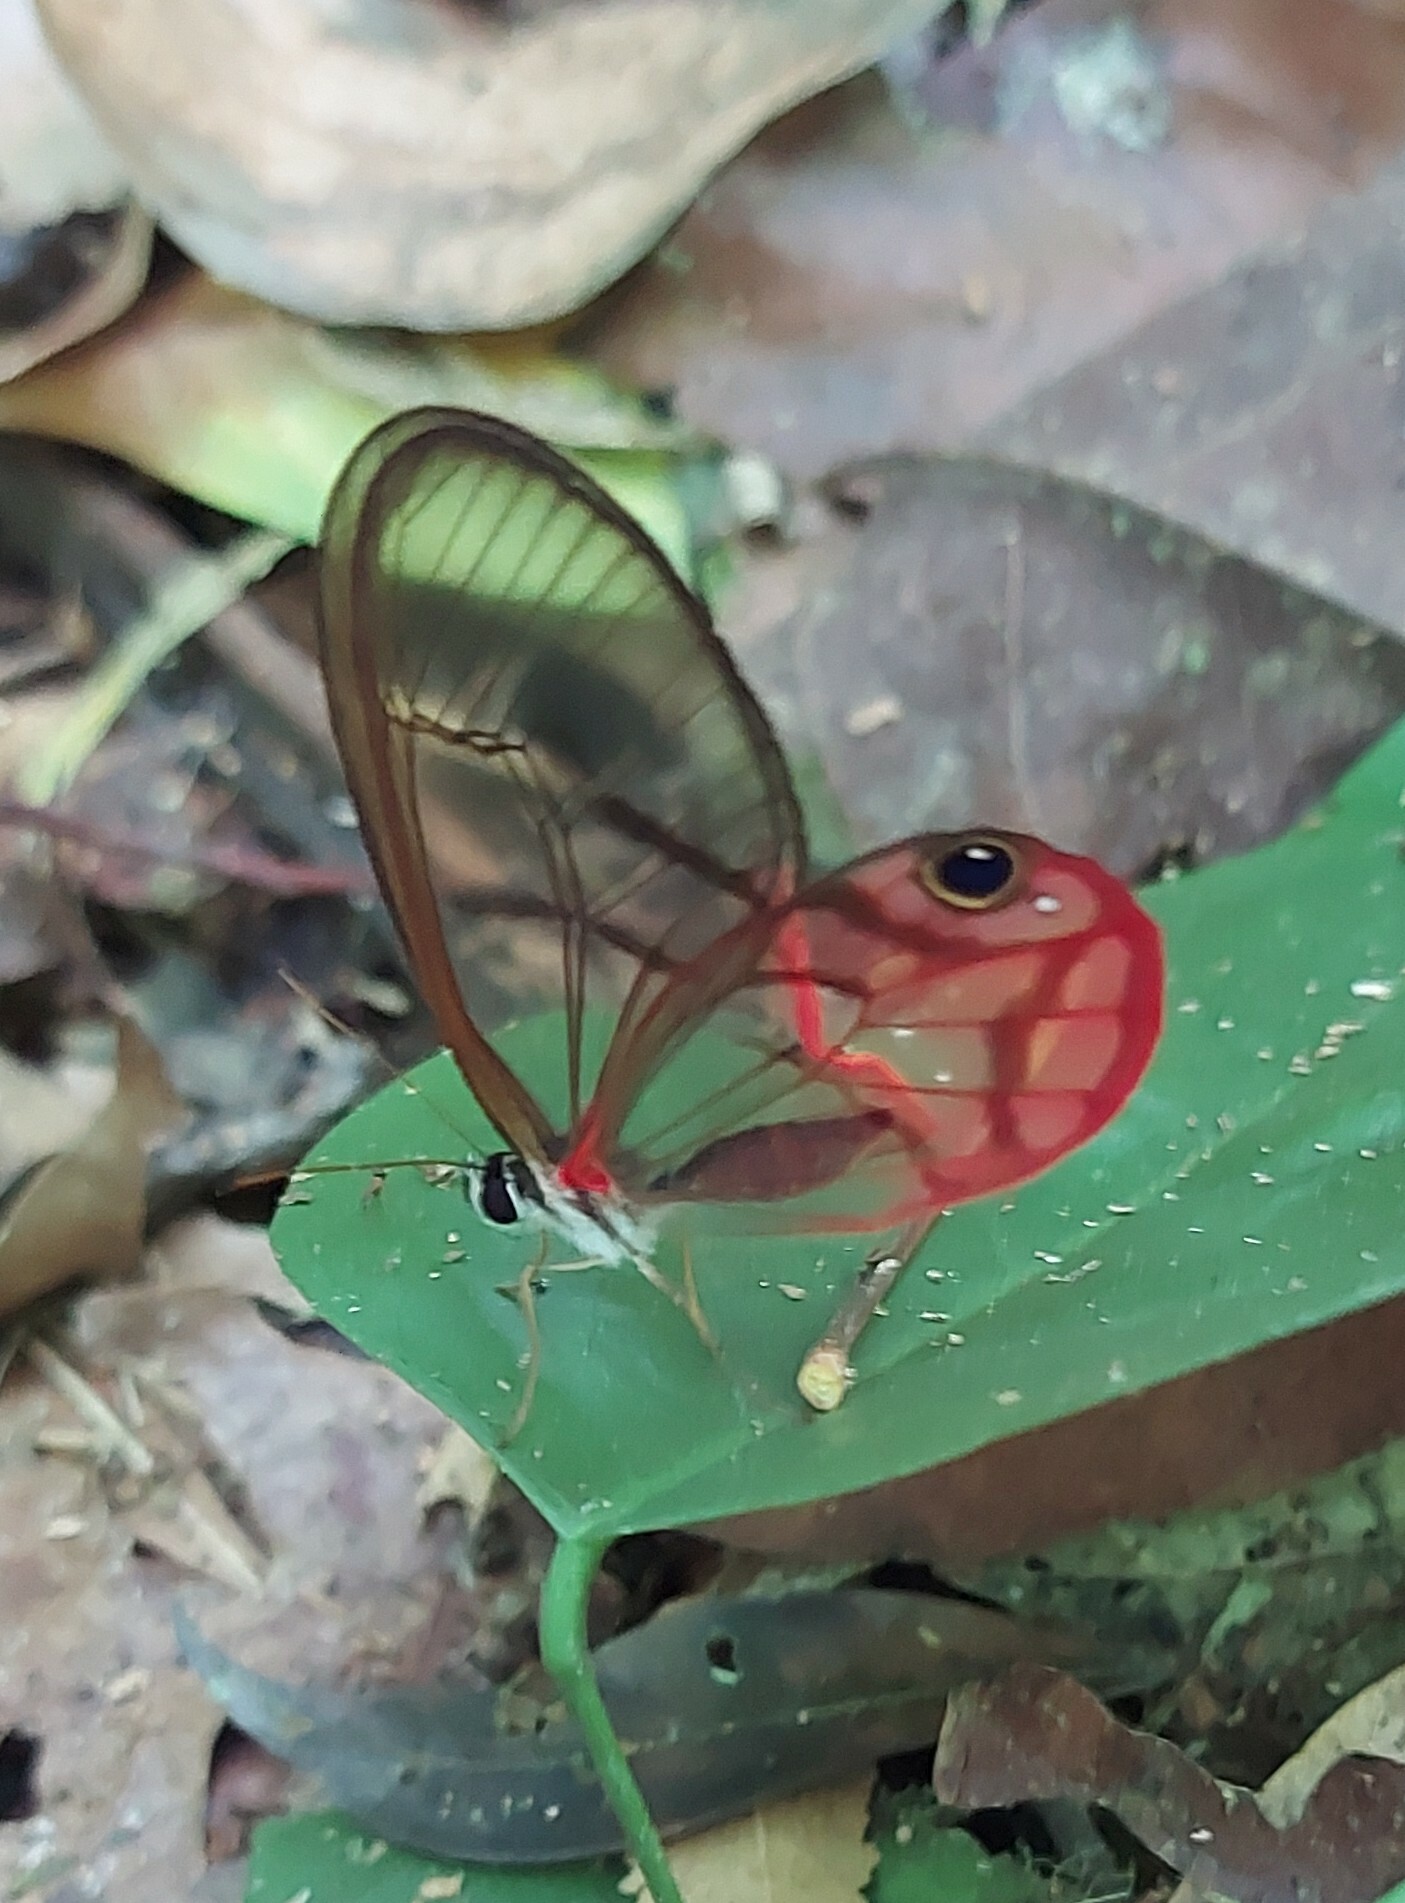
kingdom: Animalia
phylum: Arthropoda
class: Insecta
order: Lepidoptera
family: Nymphalidae
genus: Cithaerias
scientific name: Cithaerias pireta
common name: Rusted clearwing-satyr
